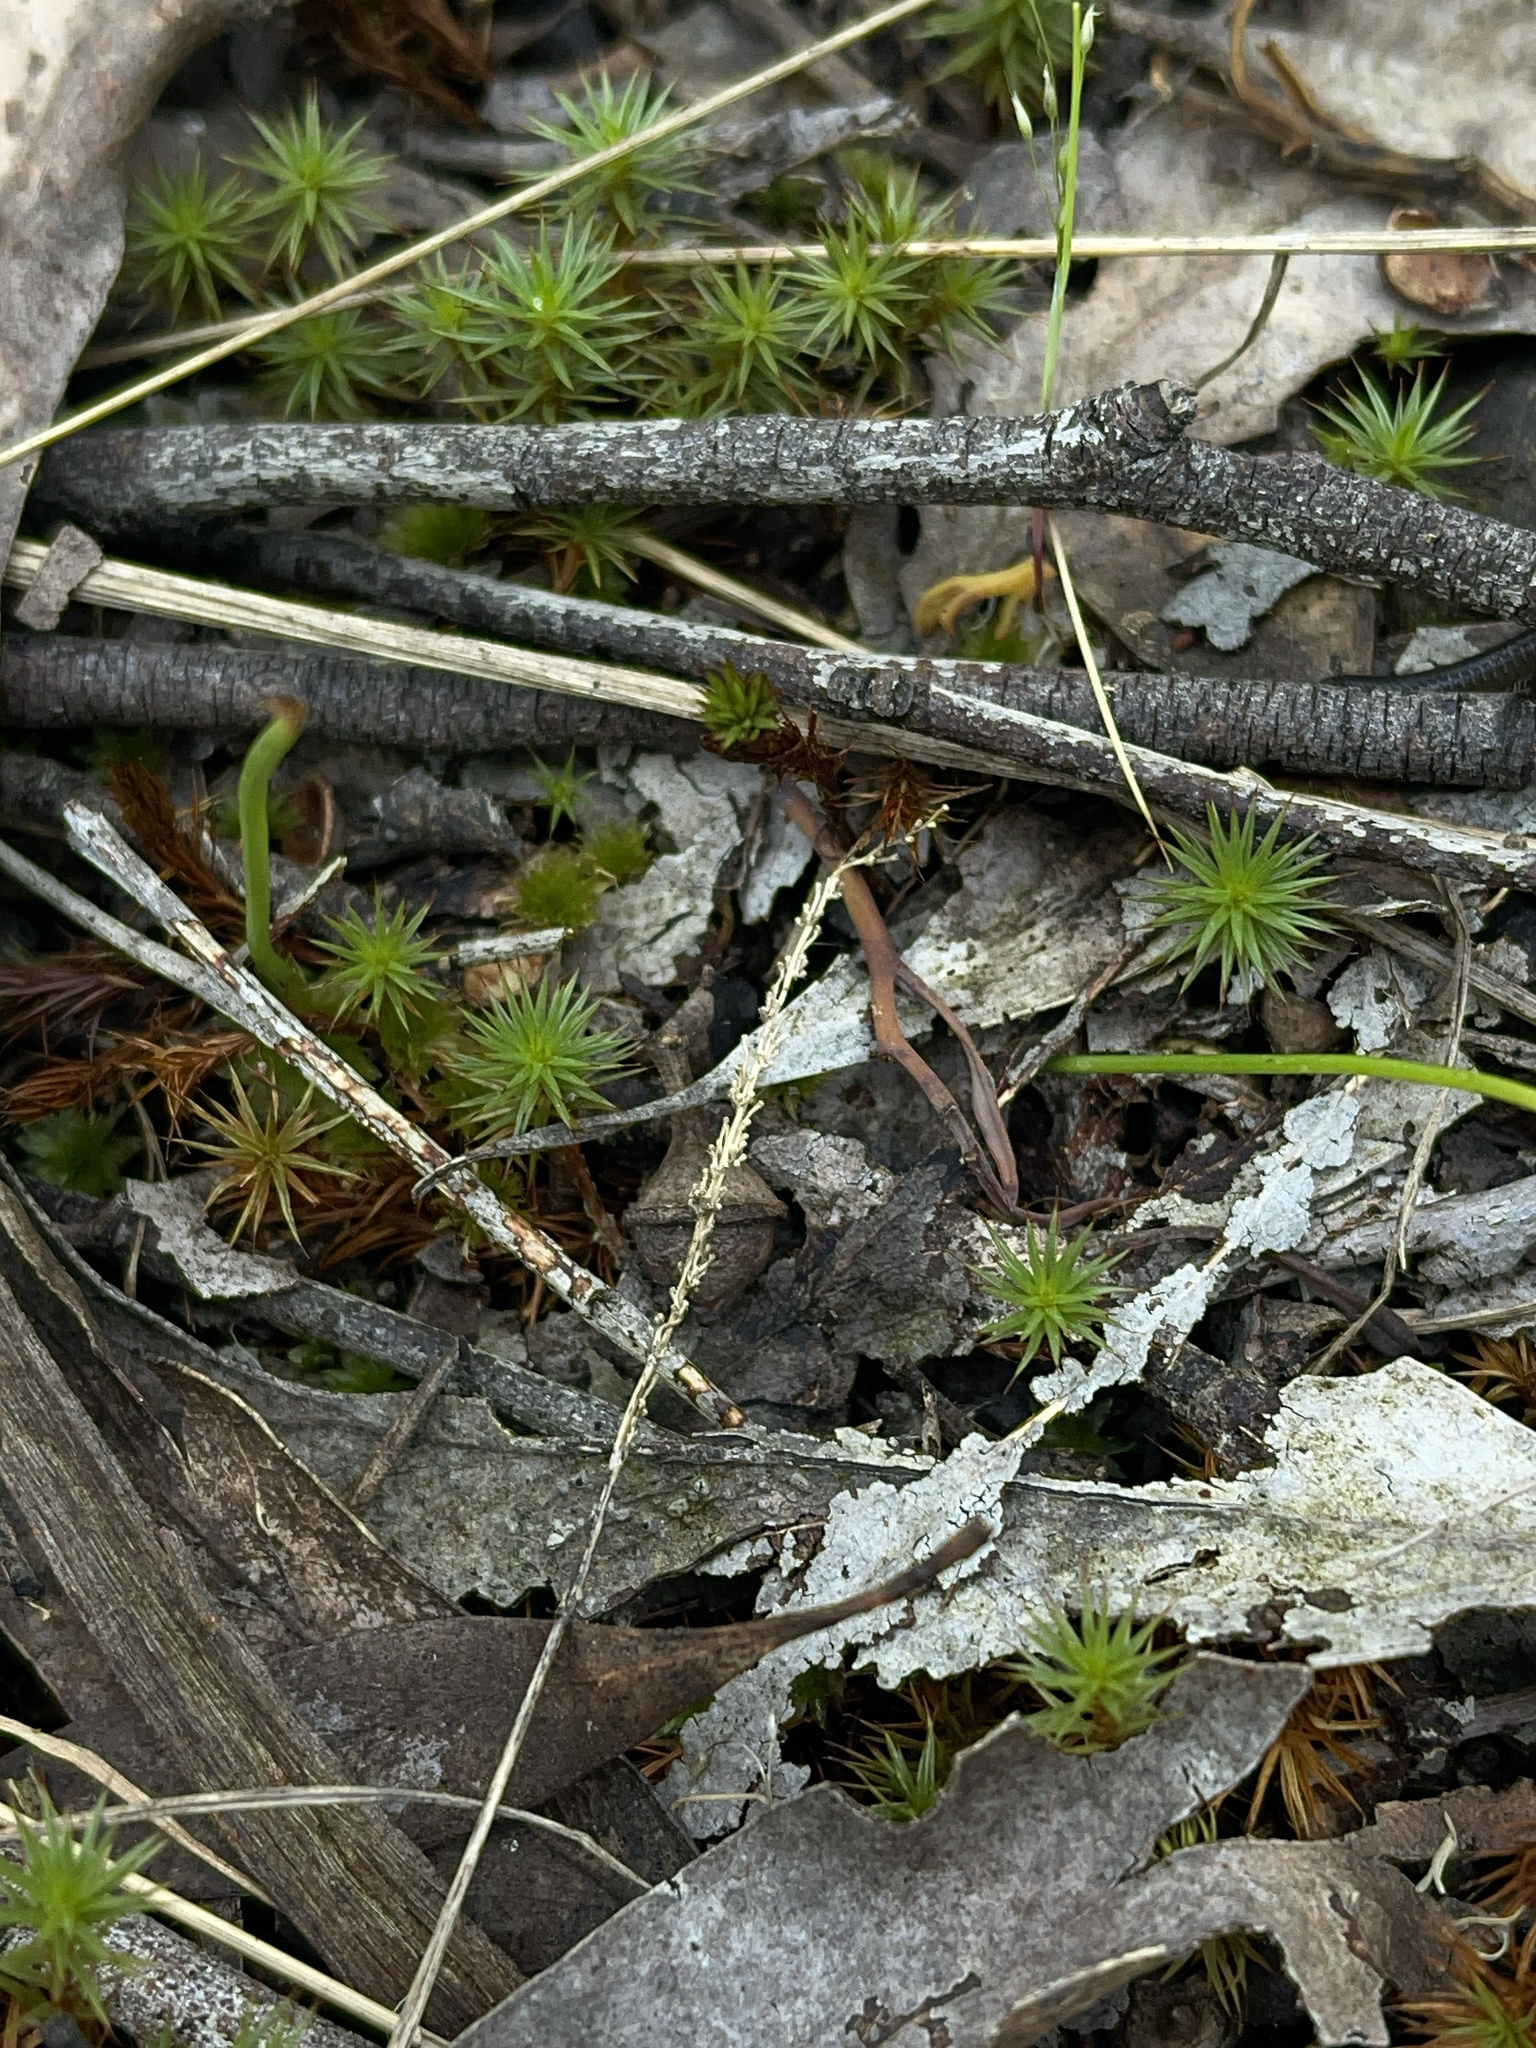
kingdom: Plantae
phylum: Bryophyta
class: Polytrichopsida
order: Polytrichales
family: Polytrichaceae
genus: Polytrichum
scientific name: Polytrichum juniperinum
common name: Juniper haircap moss
